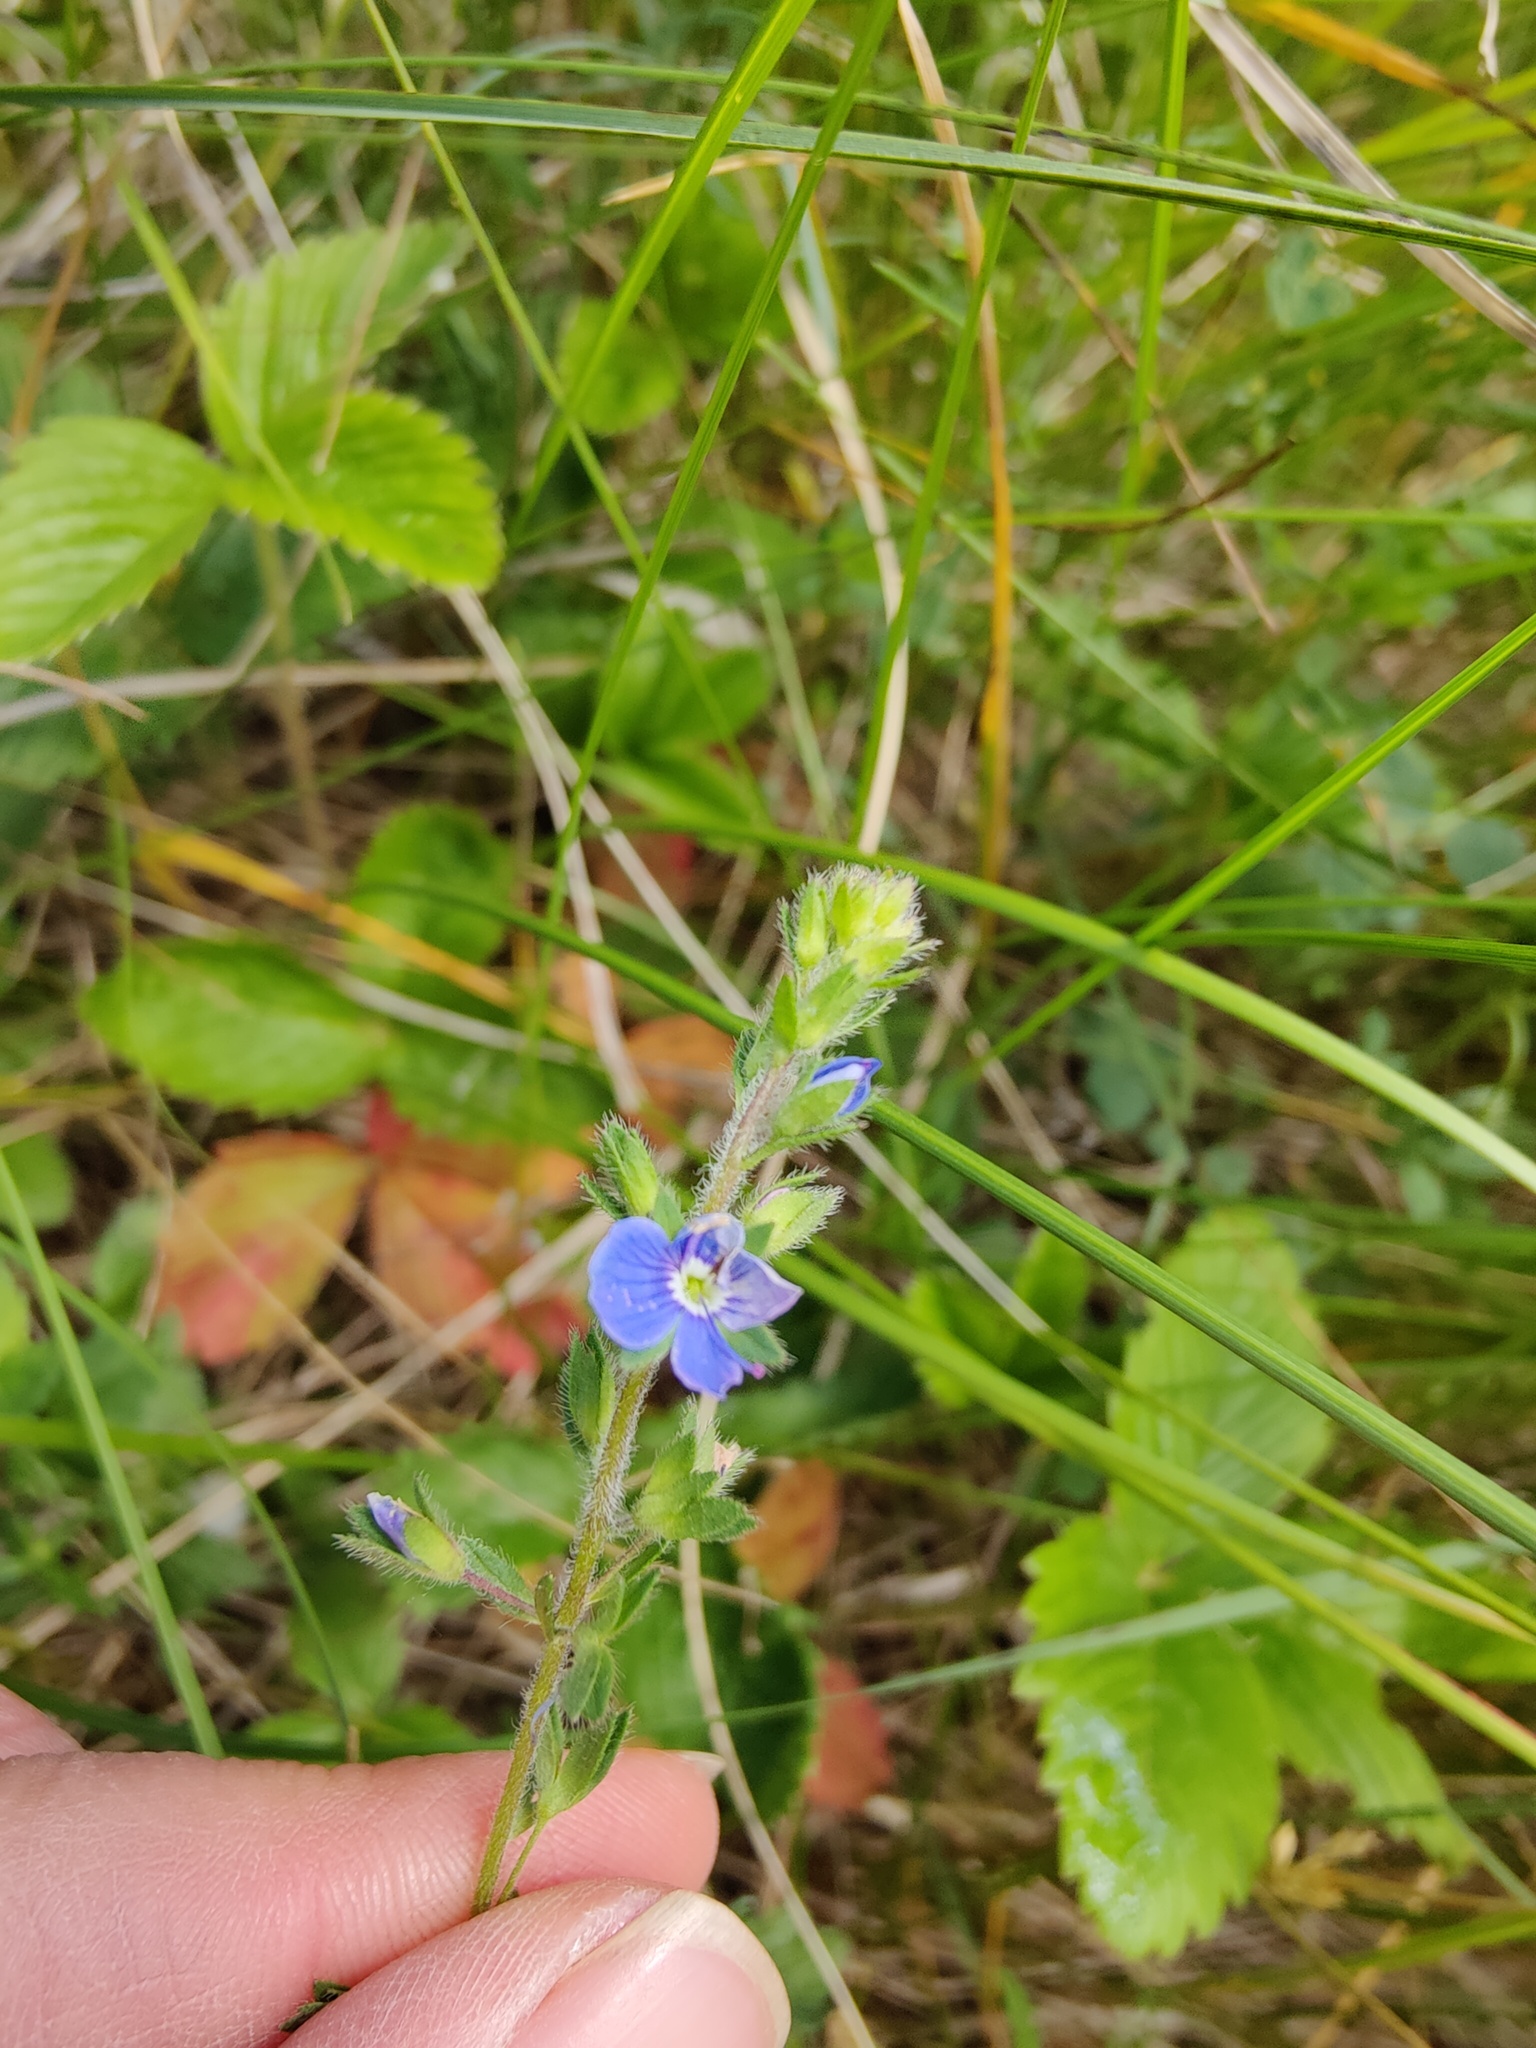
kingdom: Plantae
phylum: Tracheophyta
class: Magnoliopsida
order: Lamiales
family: Plantaginaceae
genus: Veronica
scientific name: Veronica chamaedrys
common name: Germander speedwell
